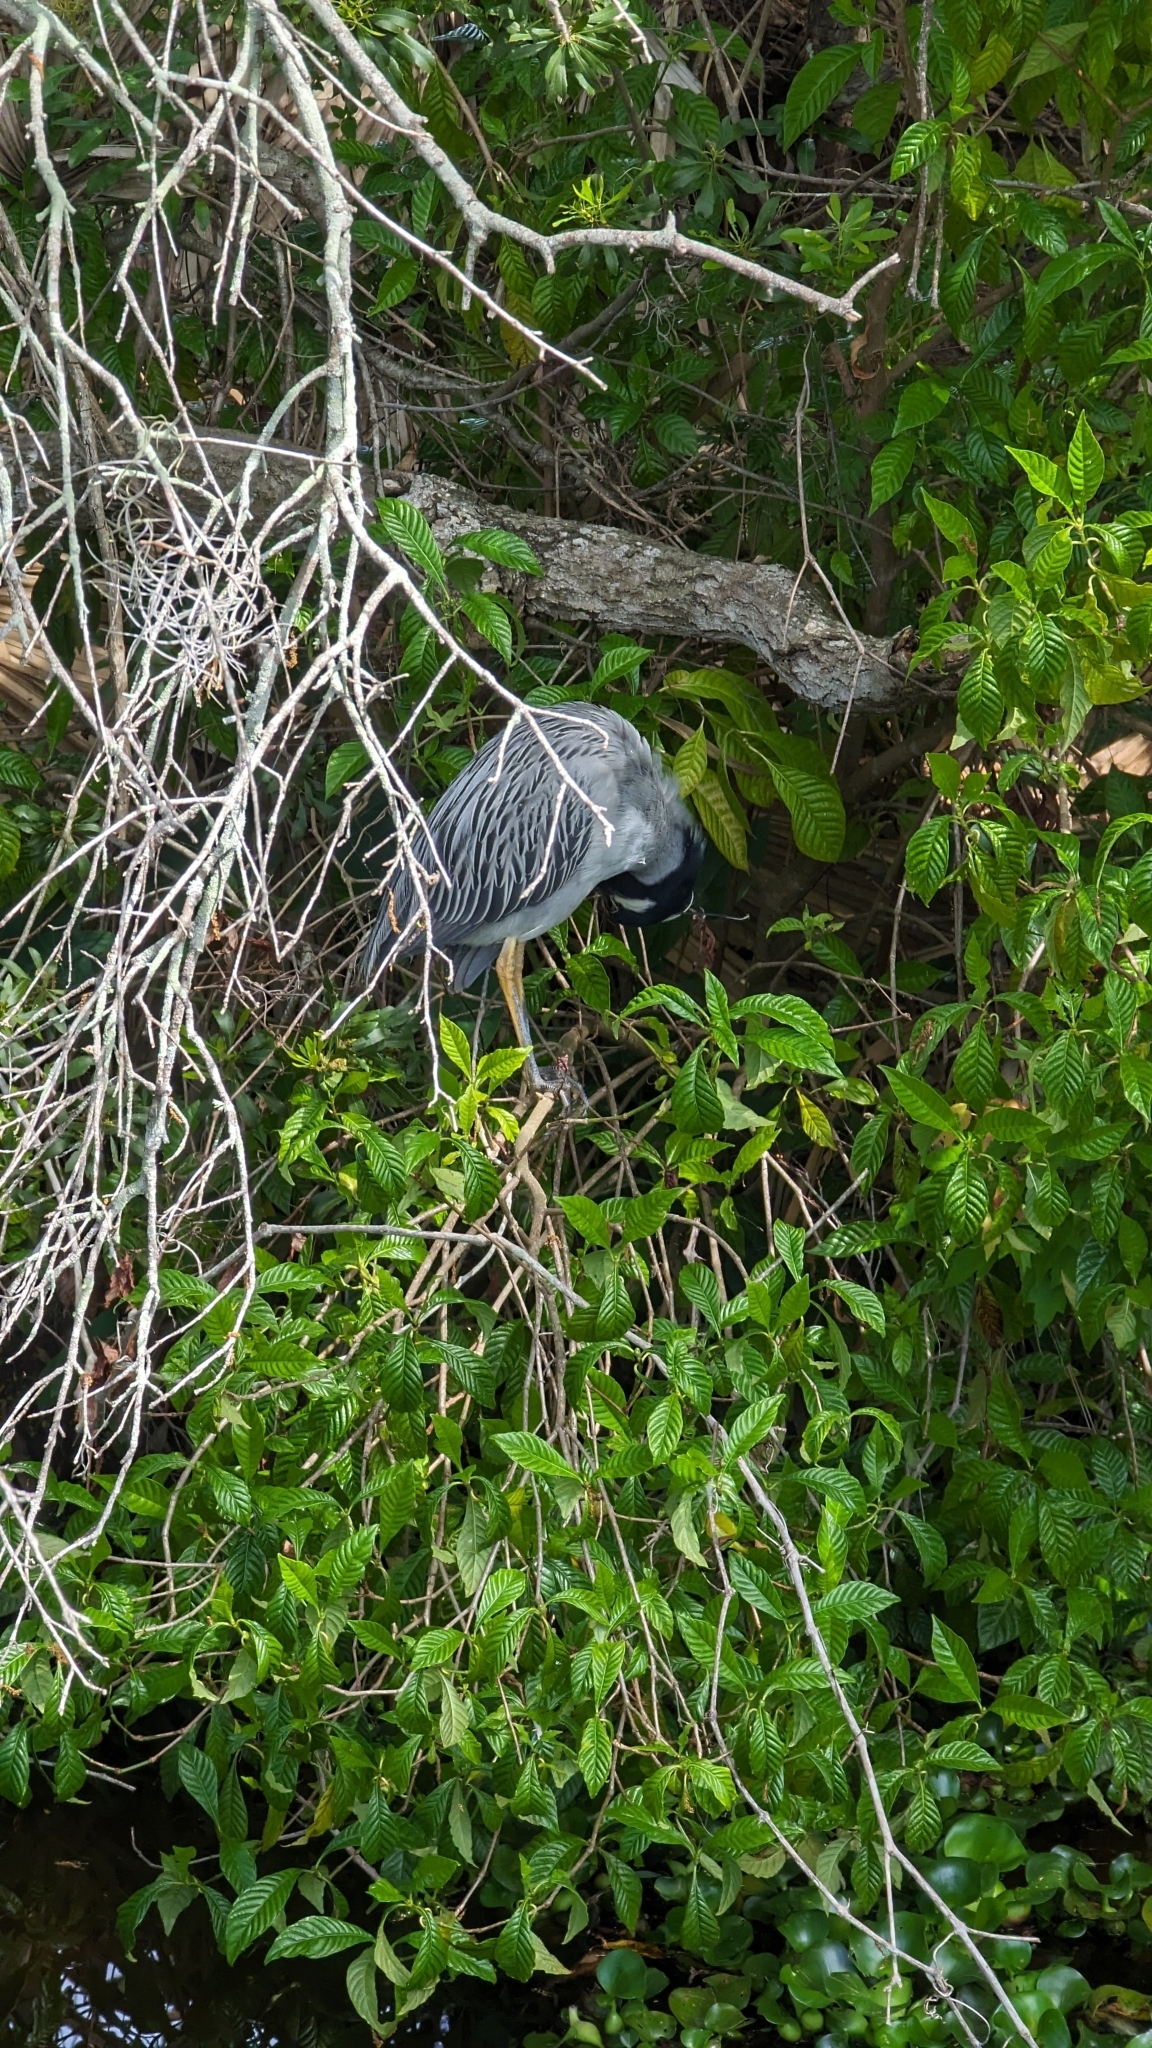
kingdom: Animalia
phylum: Chordata
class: Aves
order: Pelecaniformes
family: Ardeidae
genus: Nyctanassa
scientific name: Nyctanassa violacea
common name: Yellow-crowned night heron
